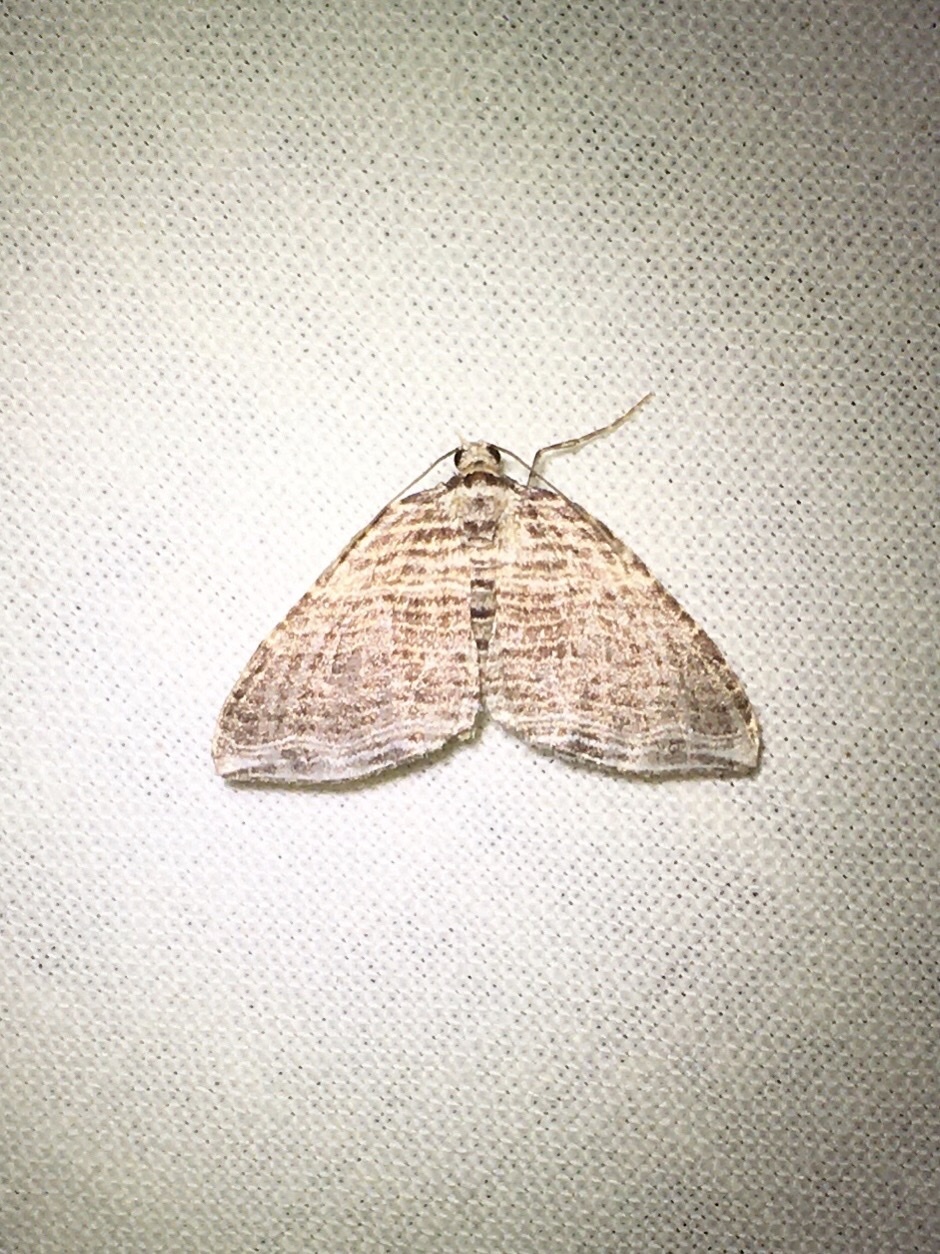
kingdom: Animalia
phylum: Arthropoda
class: Insecta
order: Lepidoptera
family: Geometridae
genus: Anticlea
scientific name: Anticlea multiferata
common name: Many-lined carpet
